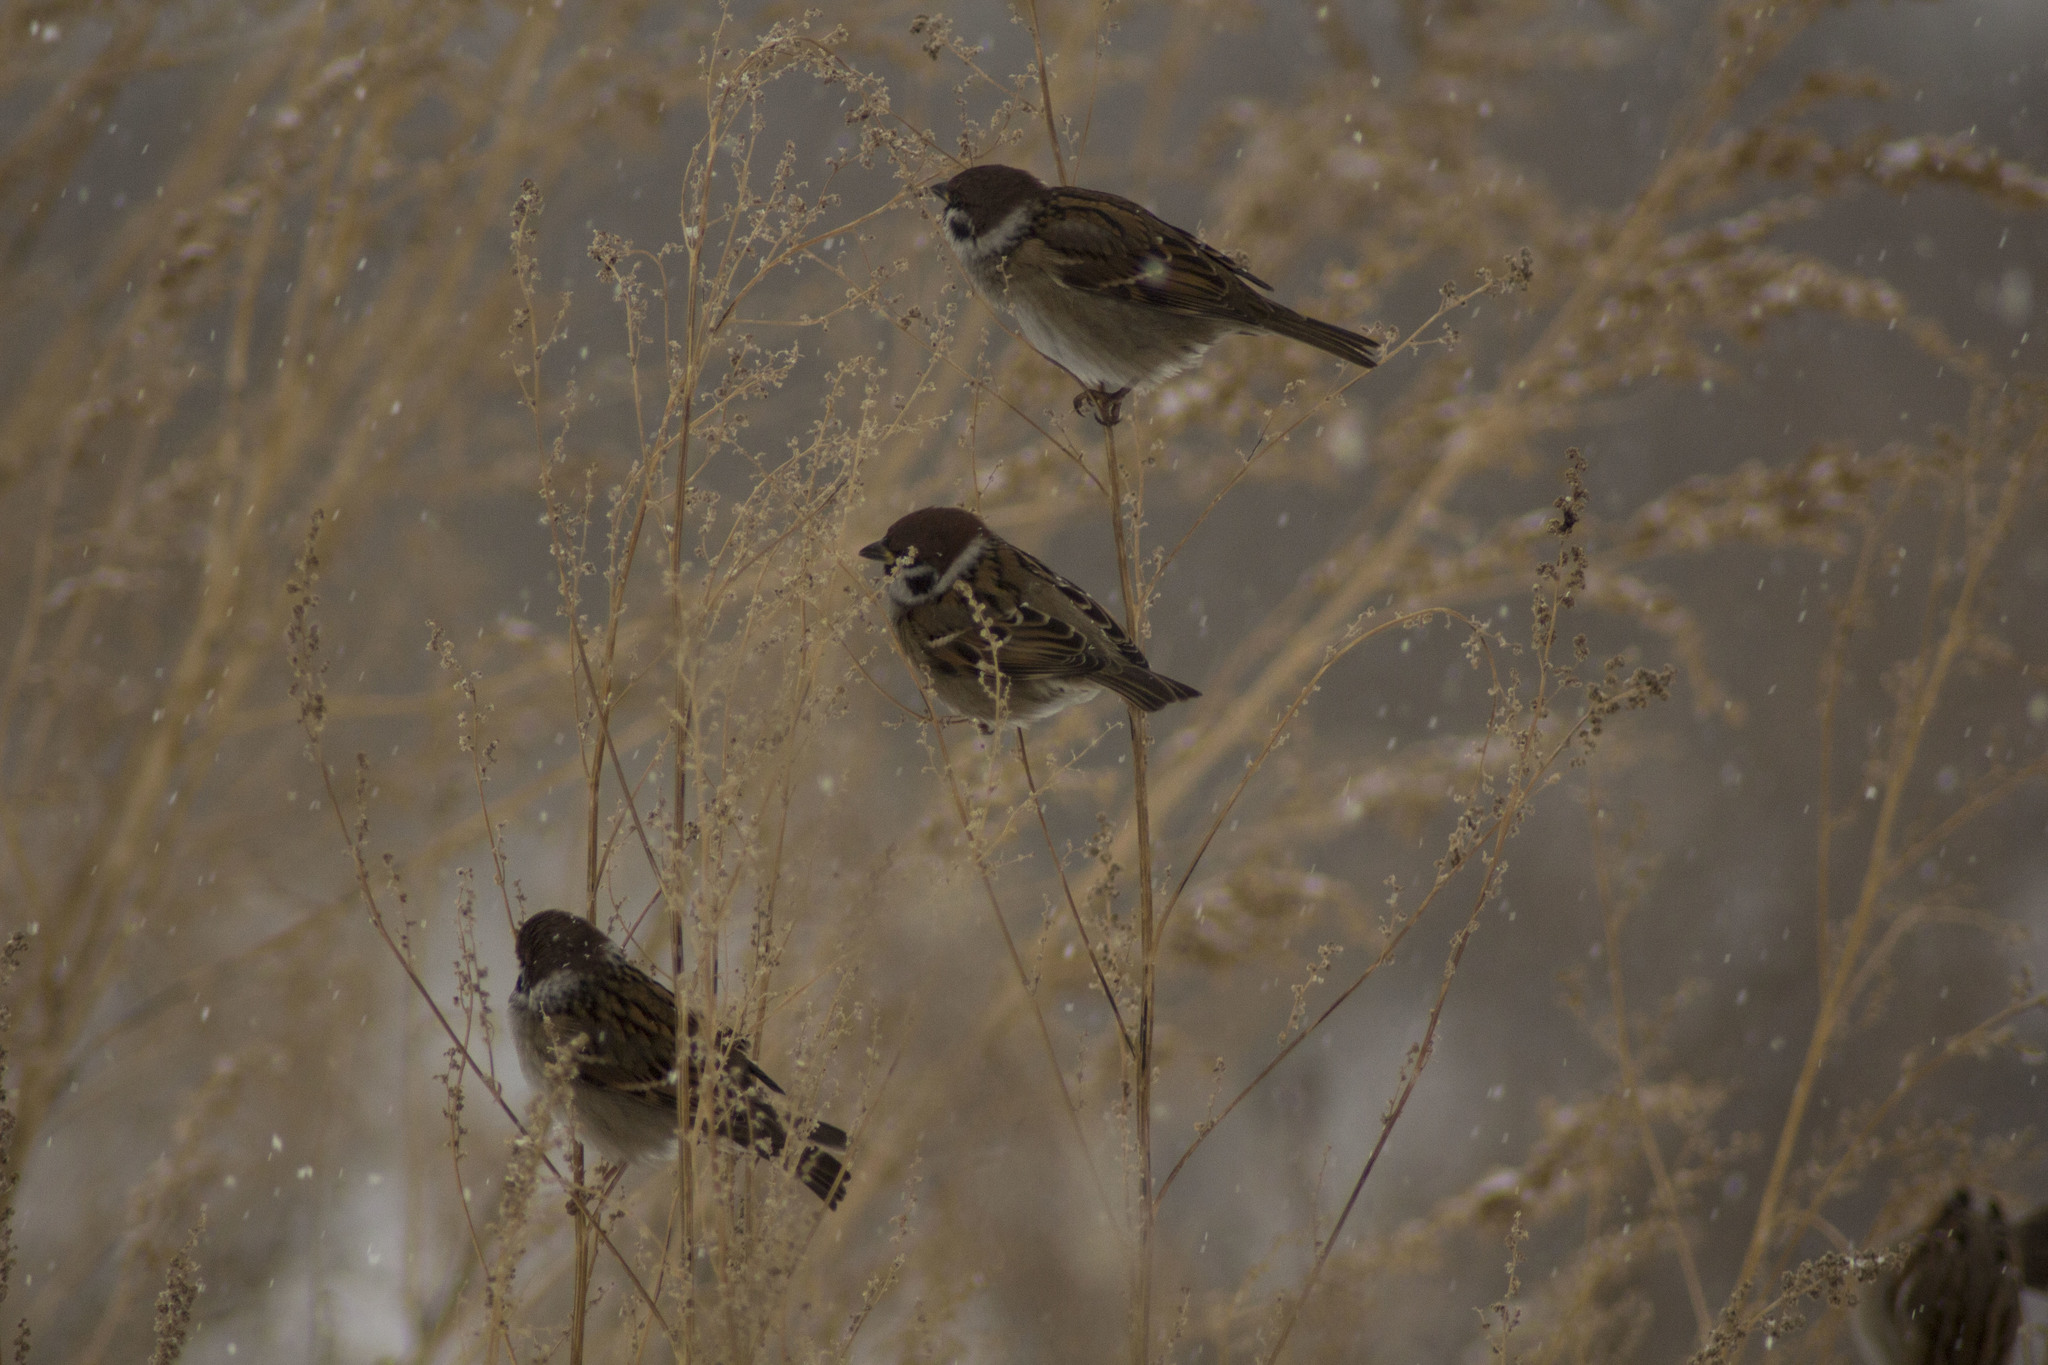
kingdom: Animalia
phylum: Chordata
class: Aves
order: Passeriformes
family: Passeridae
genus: Passer
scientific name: Passer montanus
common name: Eurasian tree sparrow
